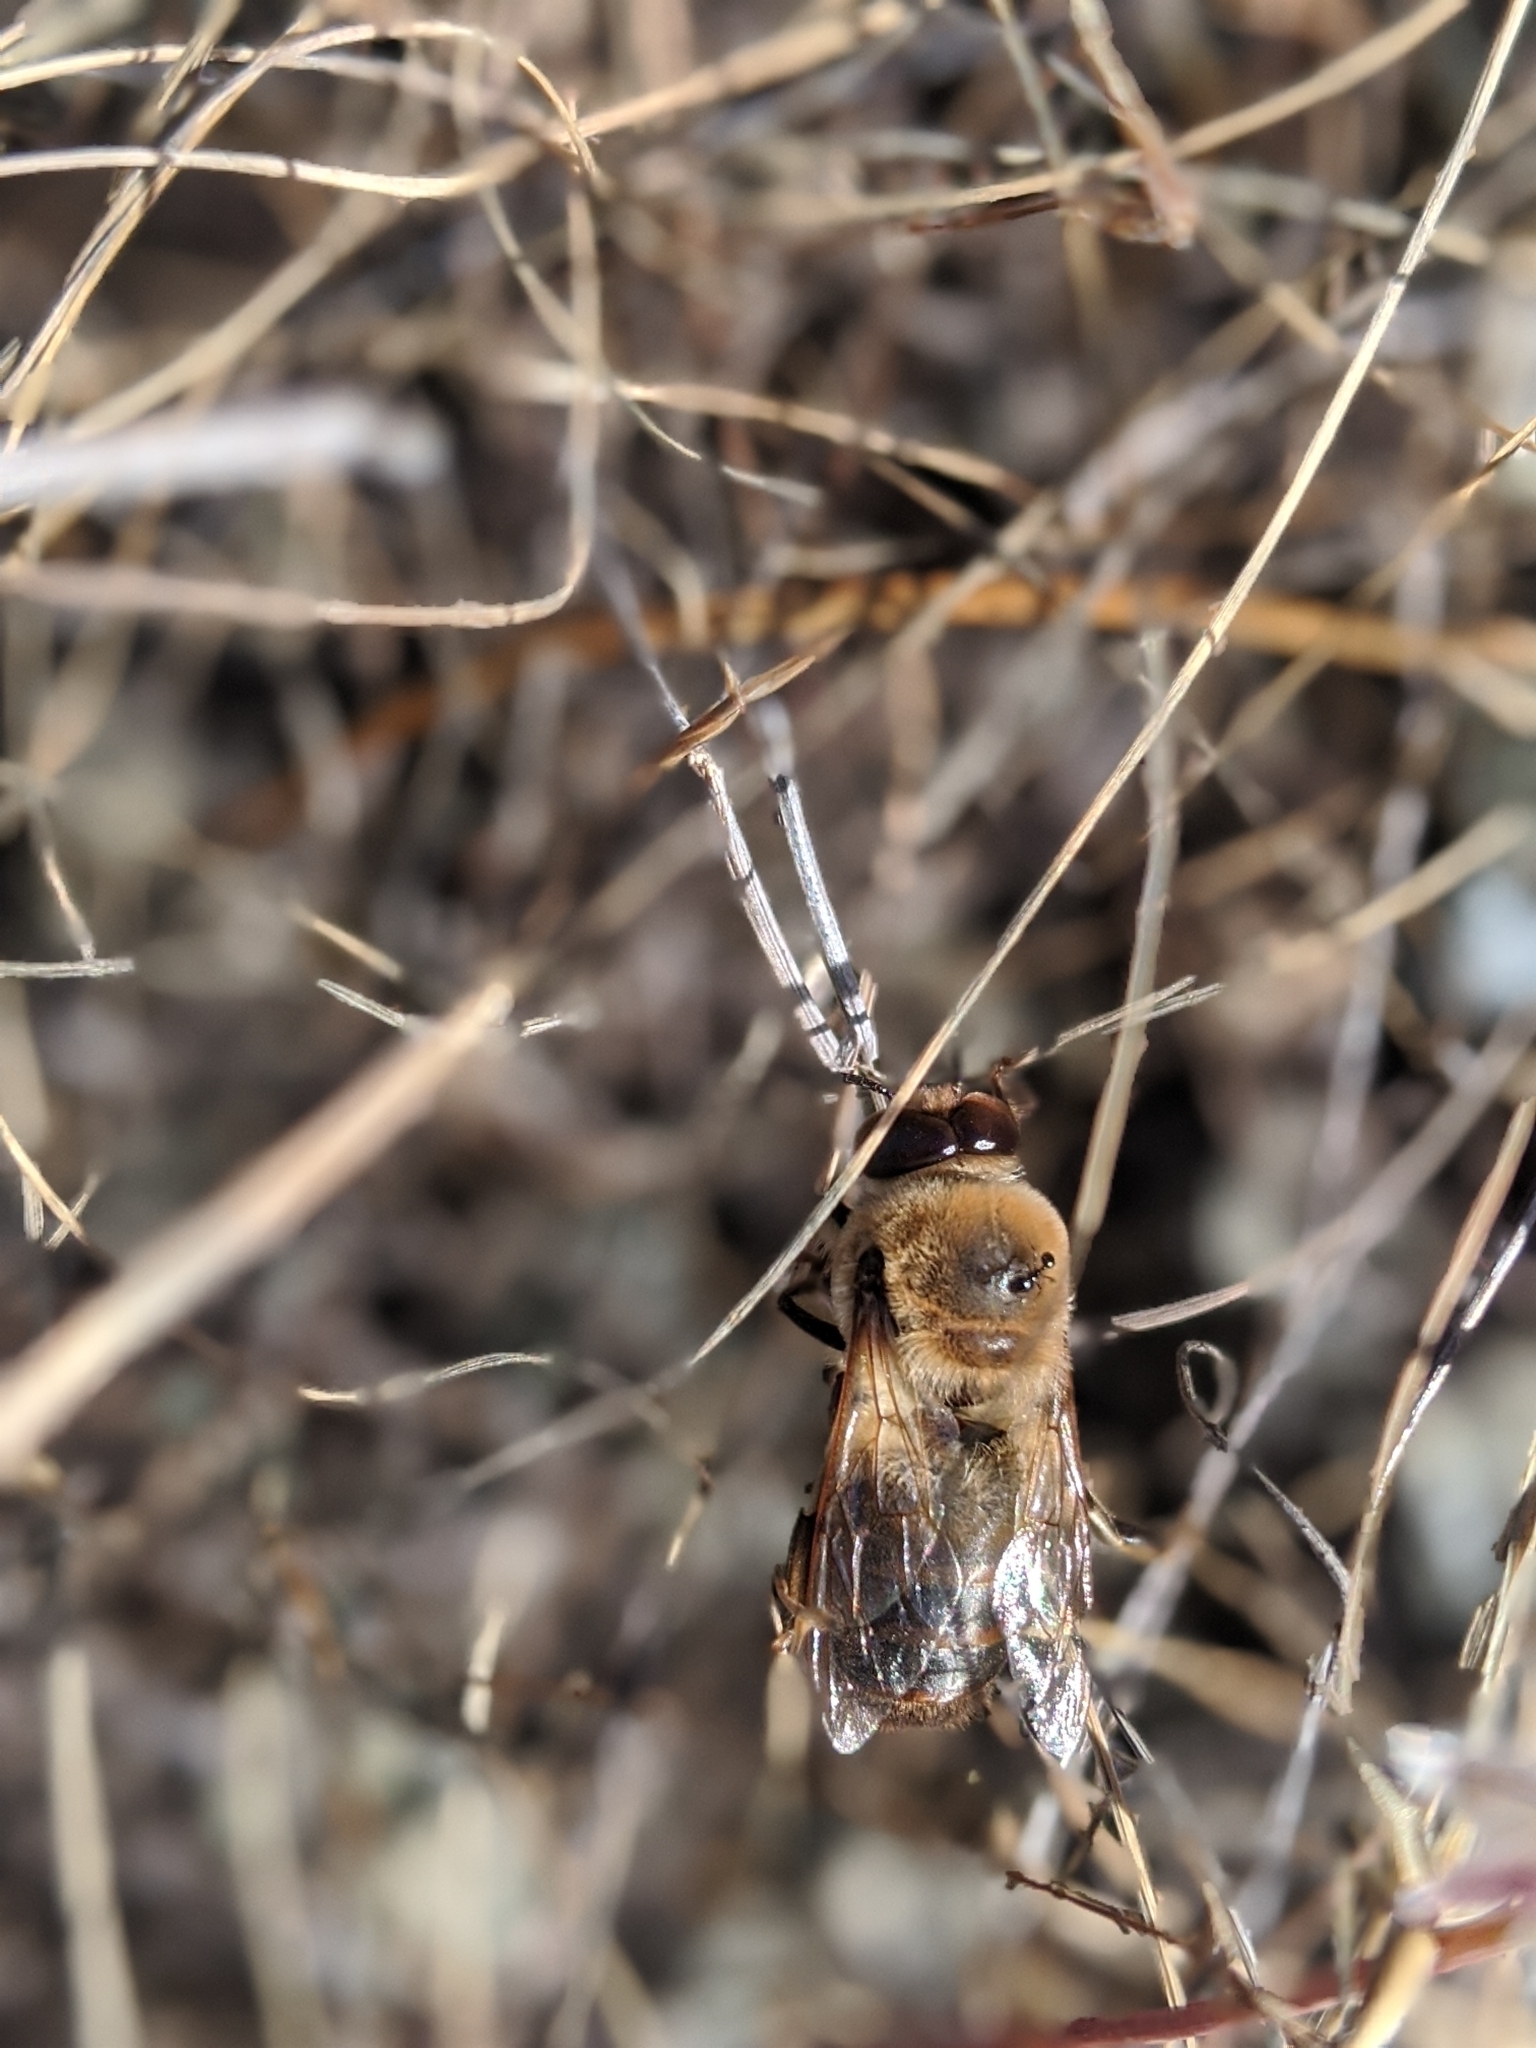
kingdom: Animalia
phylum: Arthropoda
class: Insecta
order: Hymenoptera
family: Apidae
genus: Apis
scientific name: Apis mellifera
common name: Honey bee
